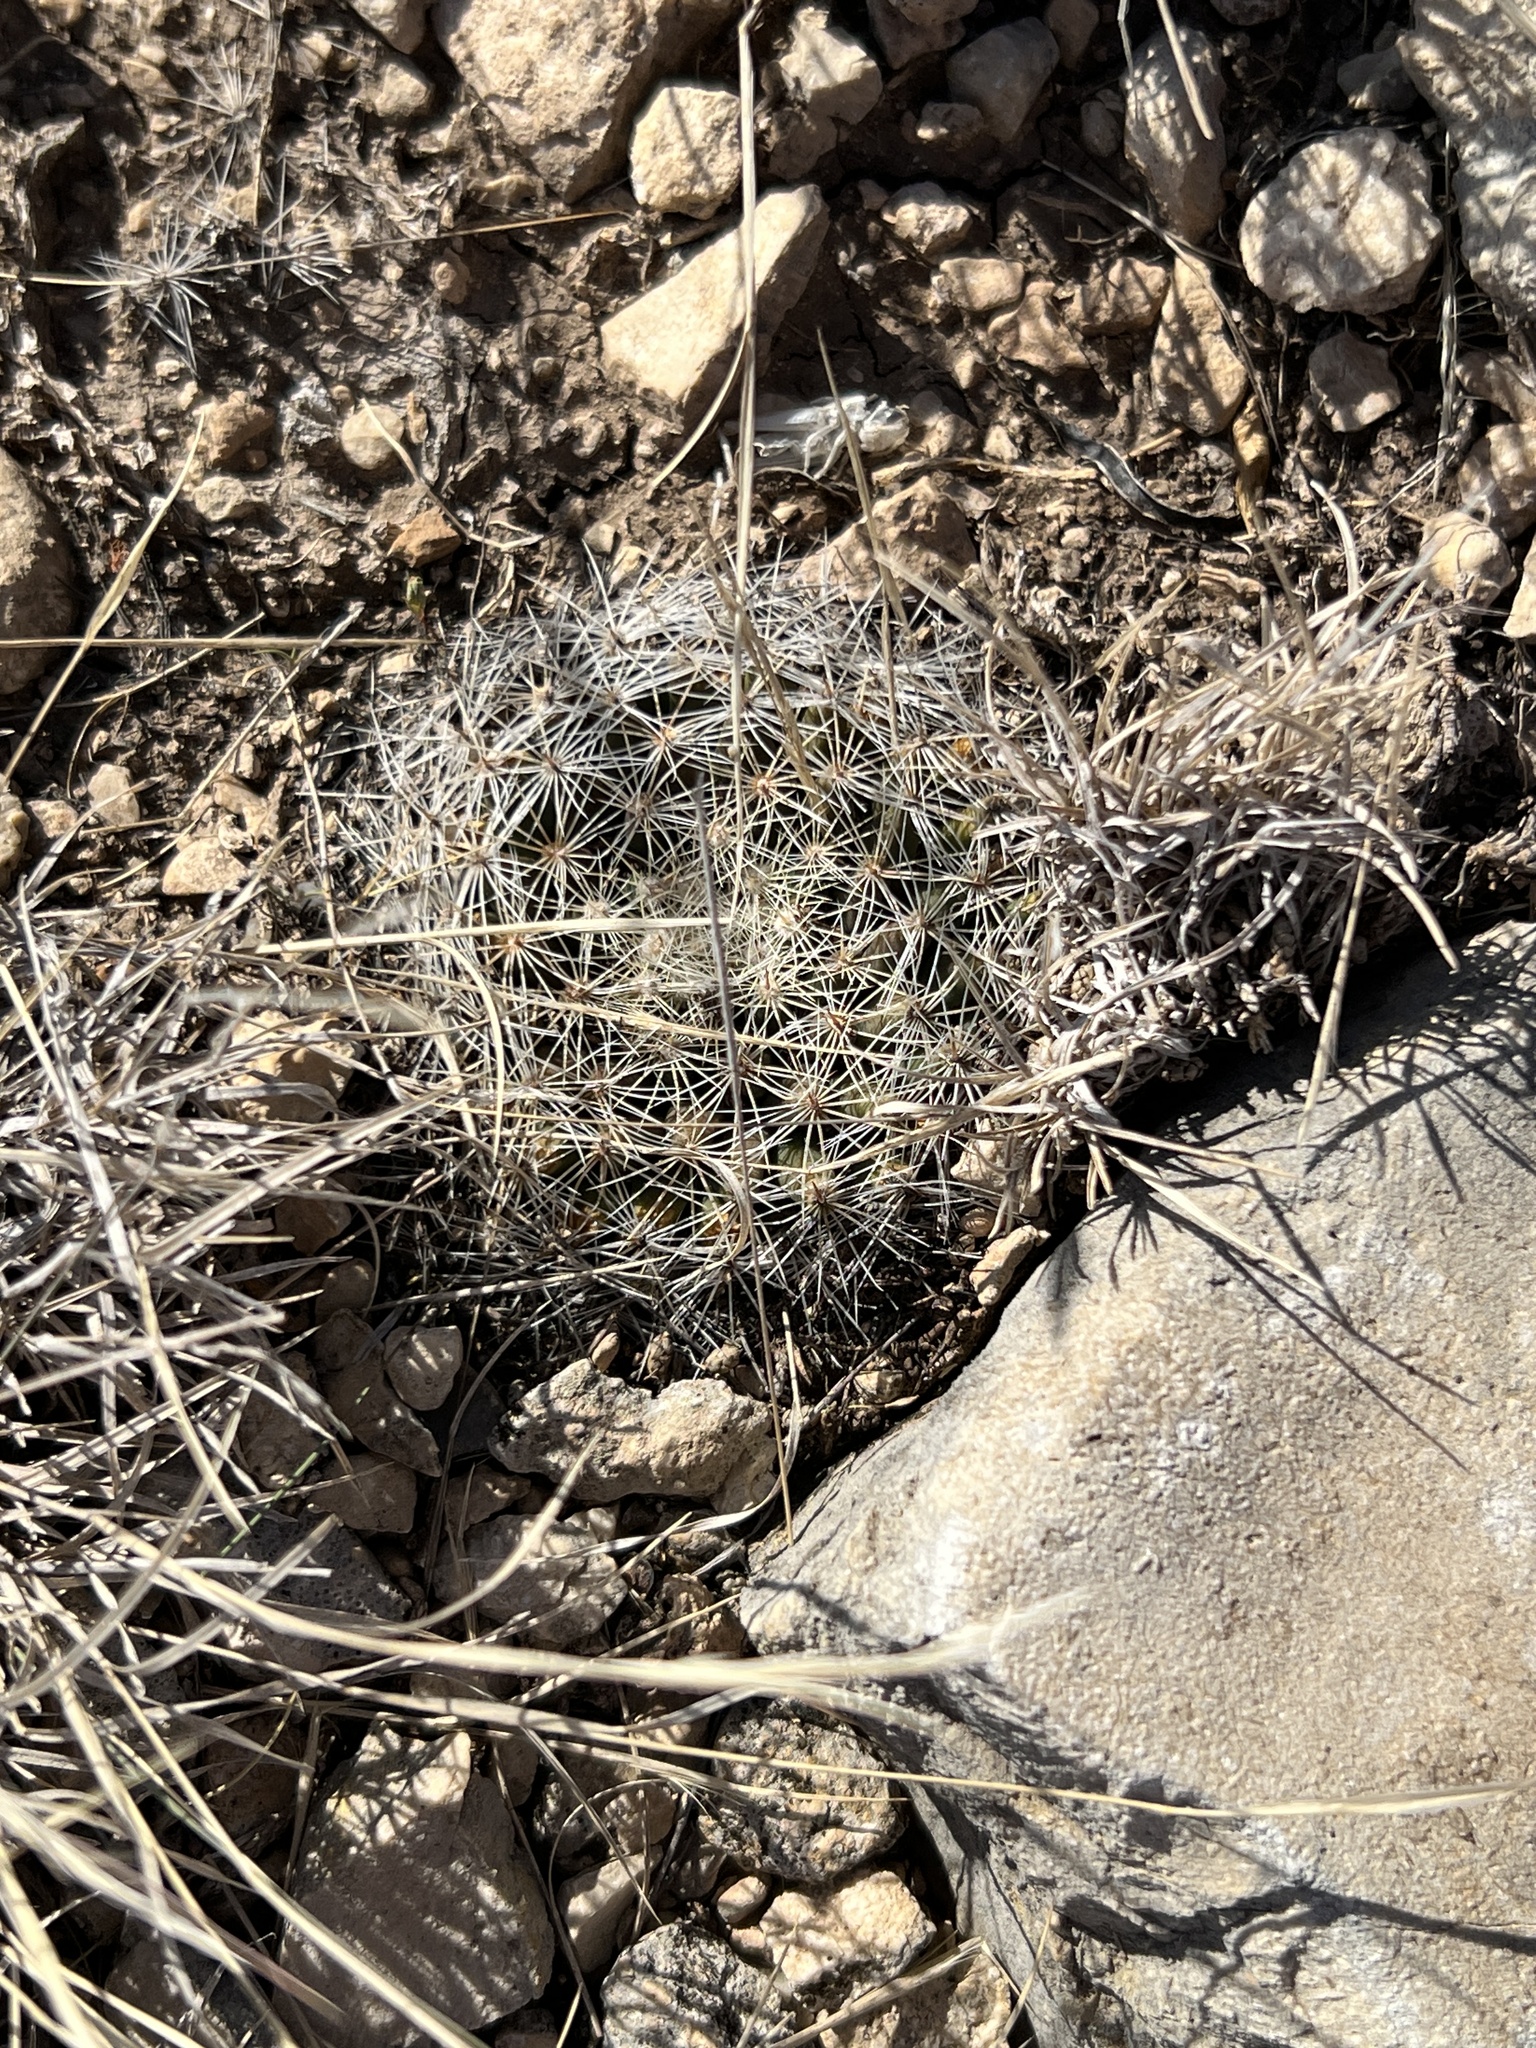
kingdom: Plantae
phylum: Tracheophyta
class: Magnoliopsida
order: Caryophyllales
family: Cactaceae
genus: Mammillaria
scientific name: Mammillaria heyderi
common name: Little nipple cactus
